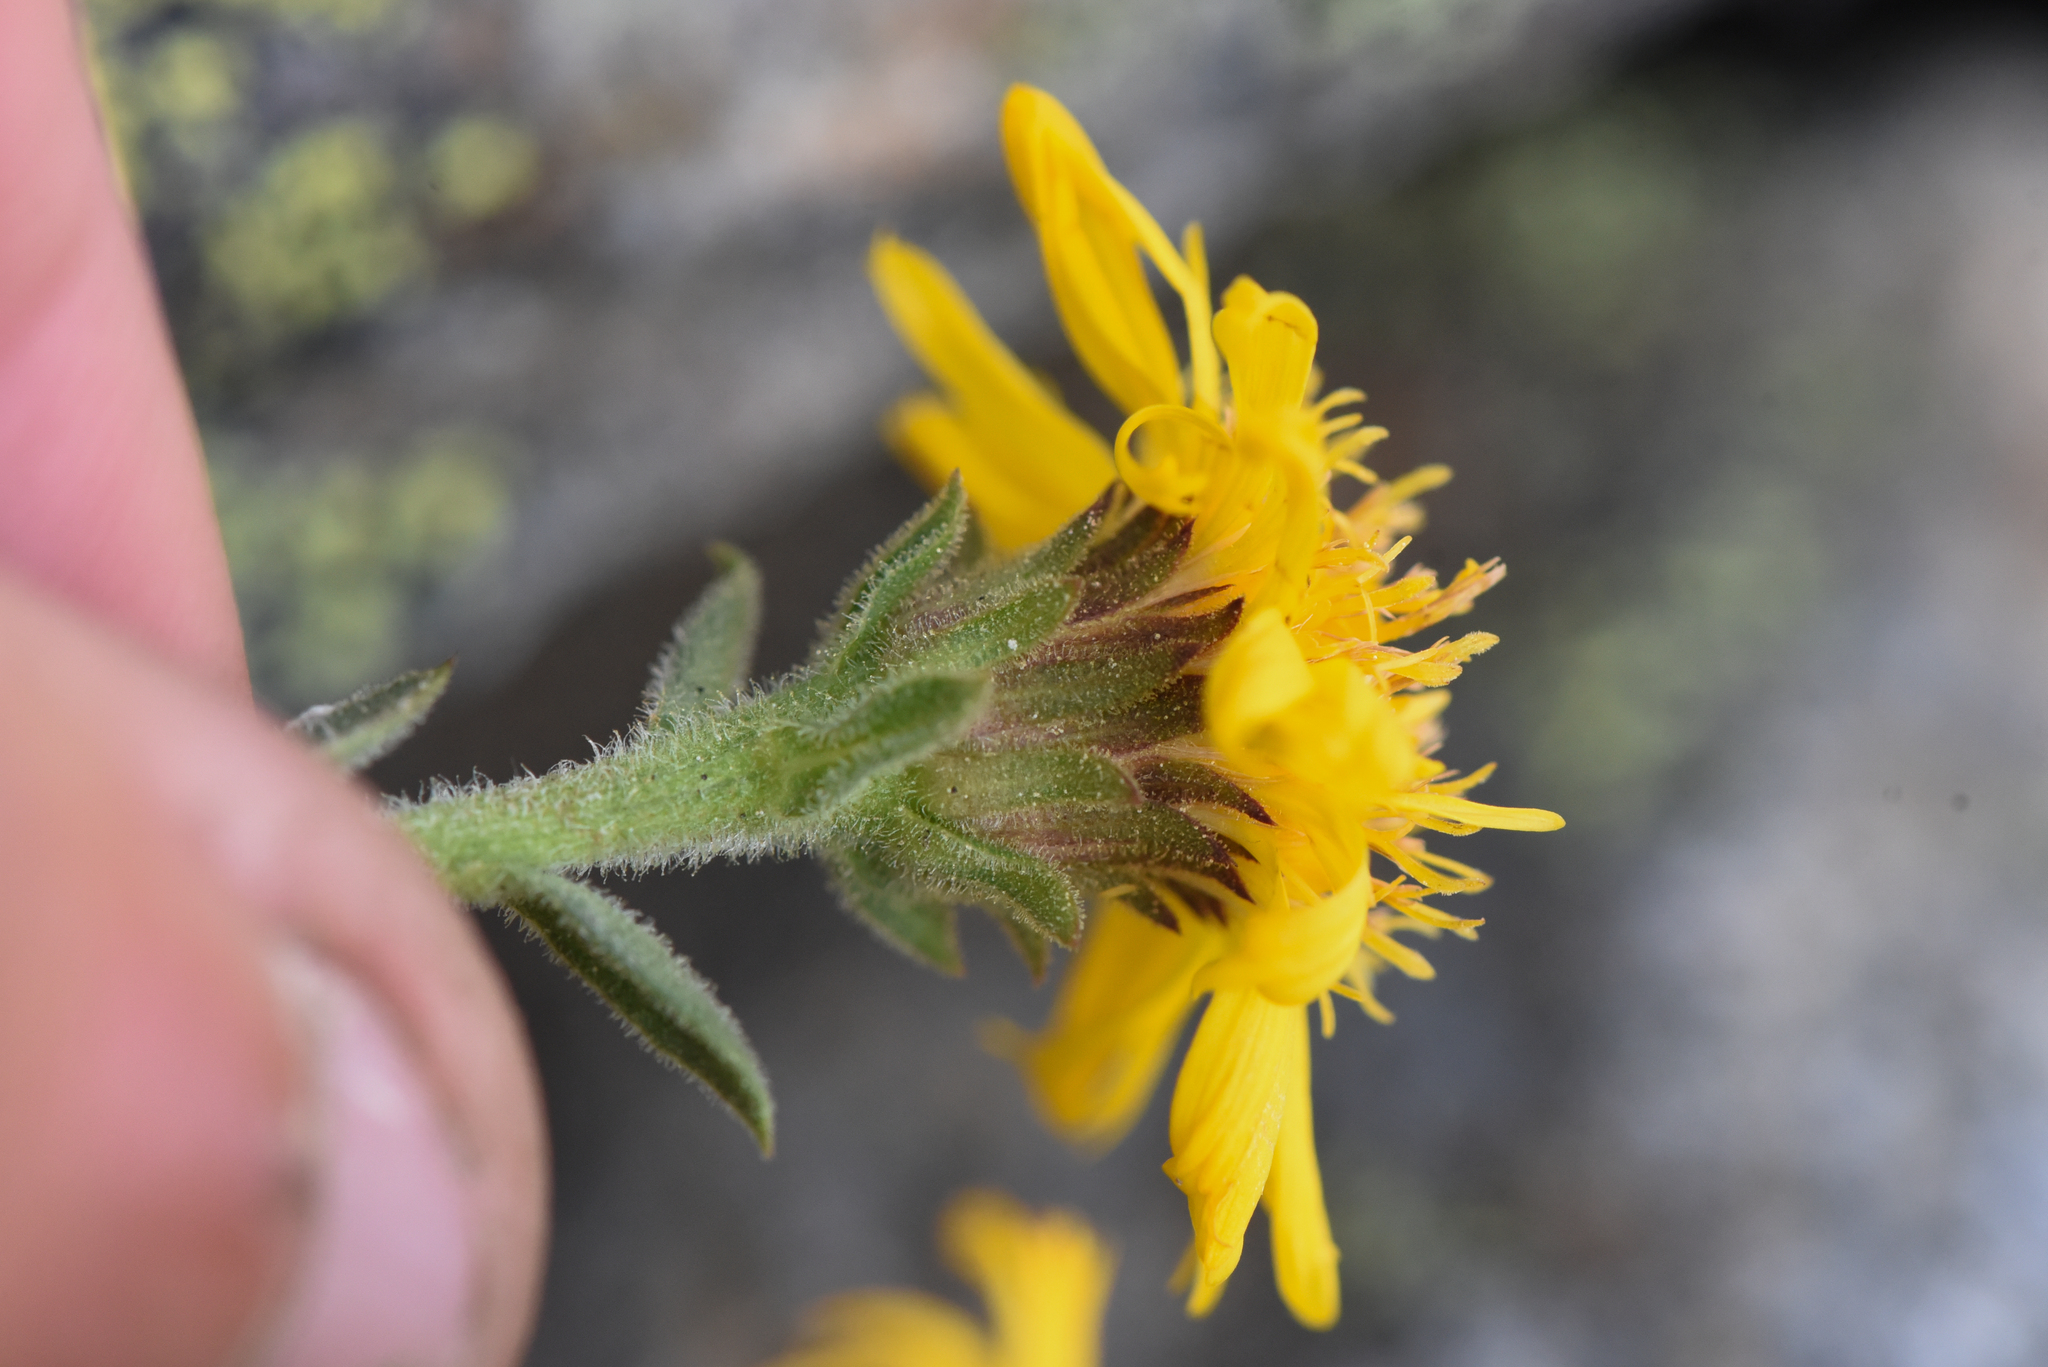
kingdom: Plantae
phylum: Tracheophyta
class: Magnoliopsida
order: Asterales
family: Asteraceae
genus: Tonestus
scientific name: Tonestus lyallii
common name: Lyall's goldenweed
